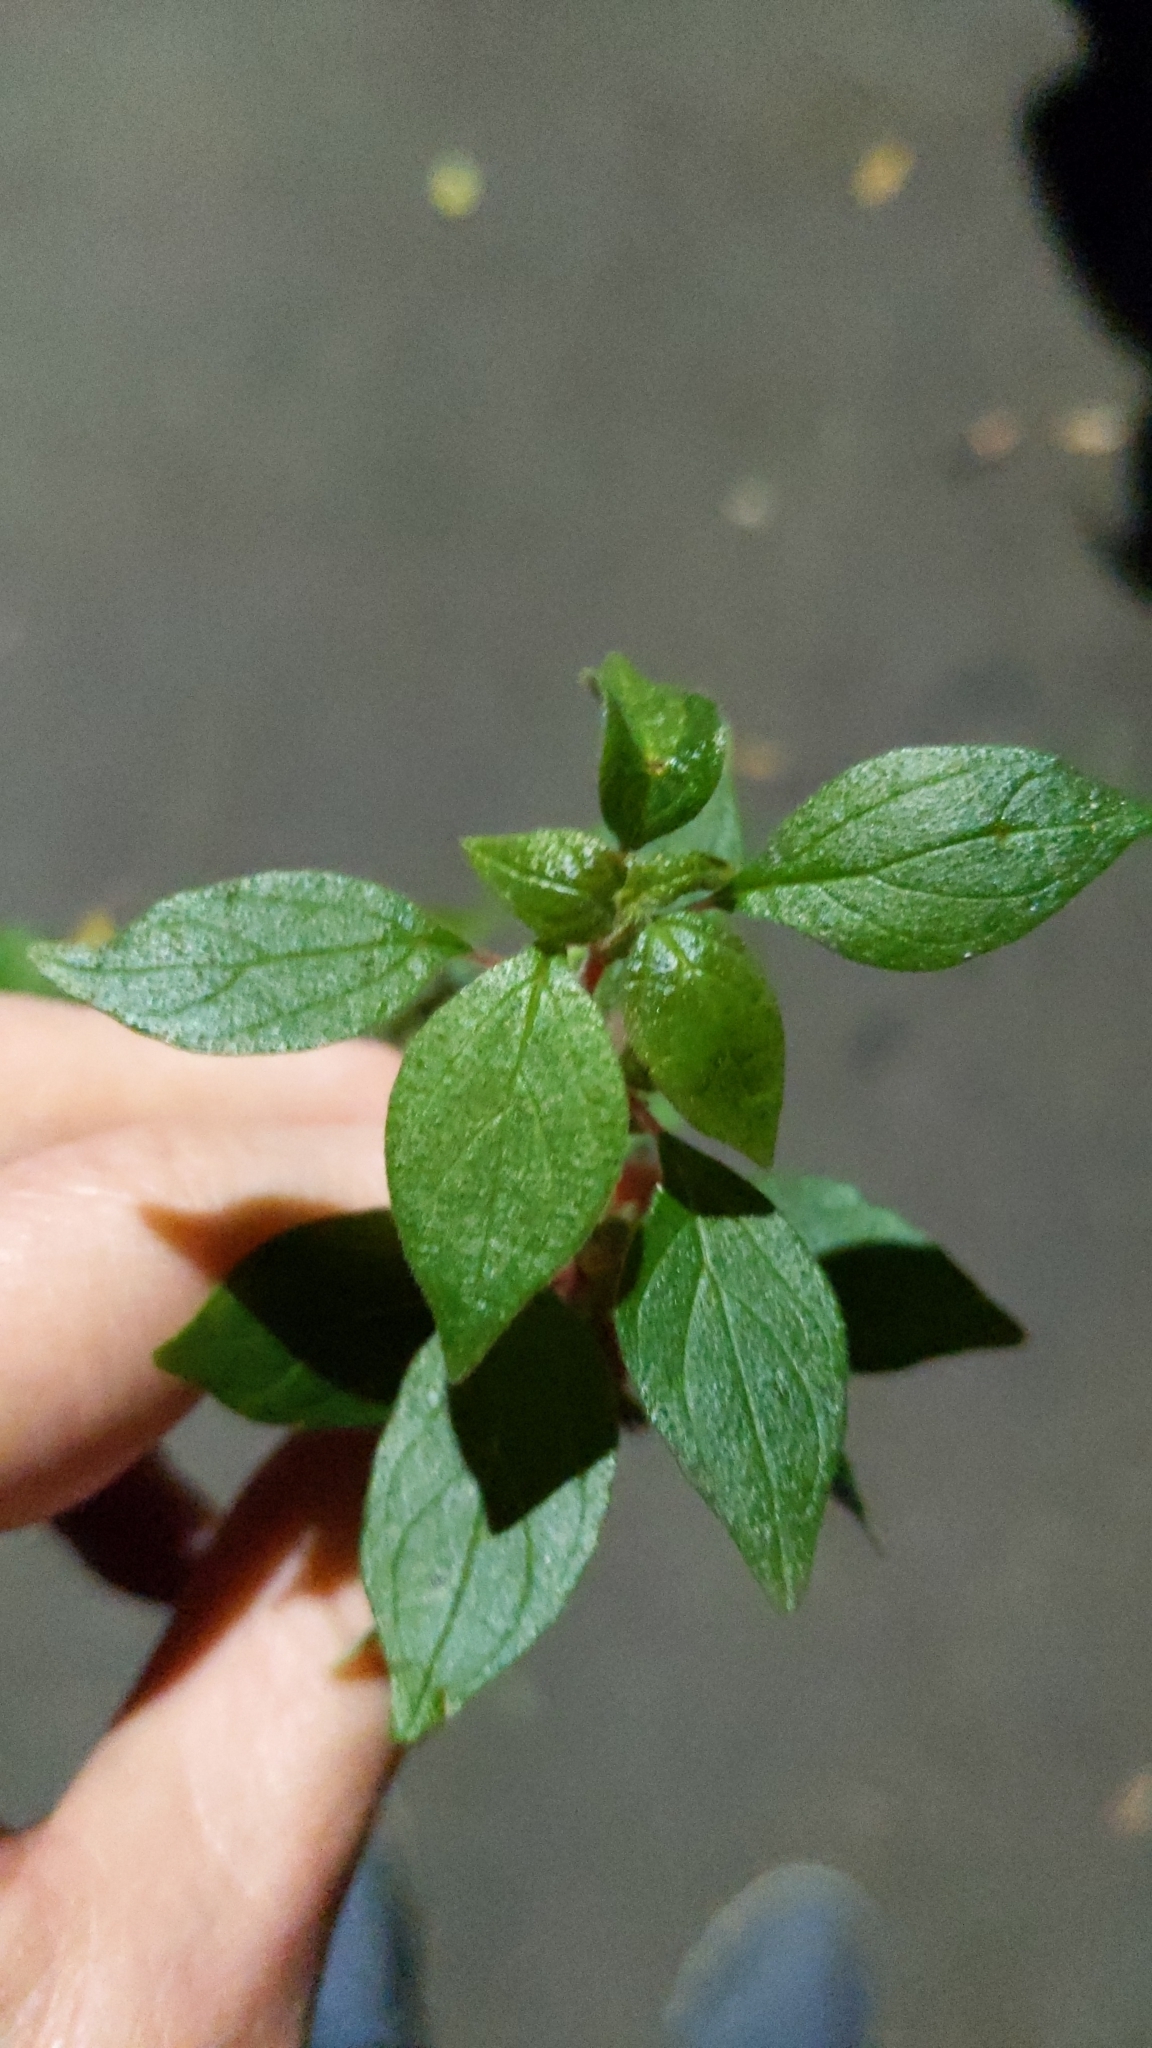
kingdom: Plantae
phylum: Tracheophyta
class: Magnoliopsida
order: Rosales
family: Urticaceae
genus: Parietaria
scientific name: Parietaria judaica
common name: Pellitory-of-the-wall
